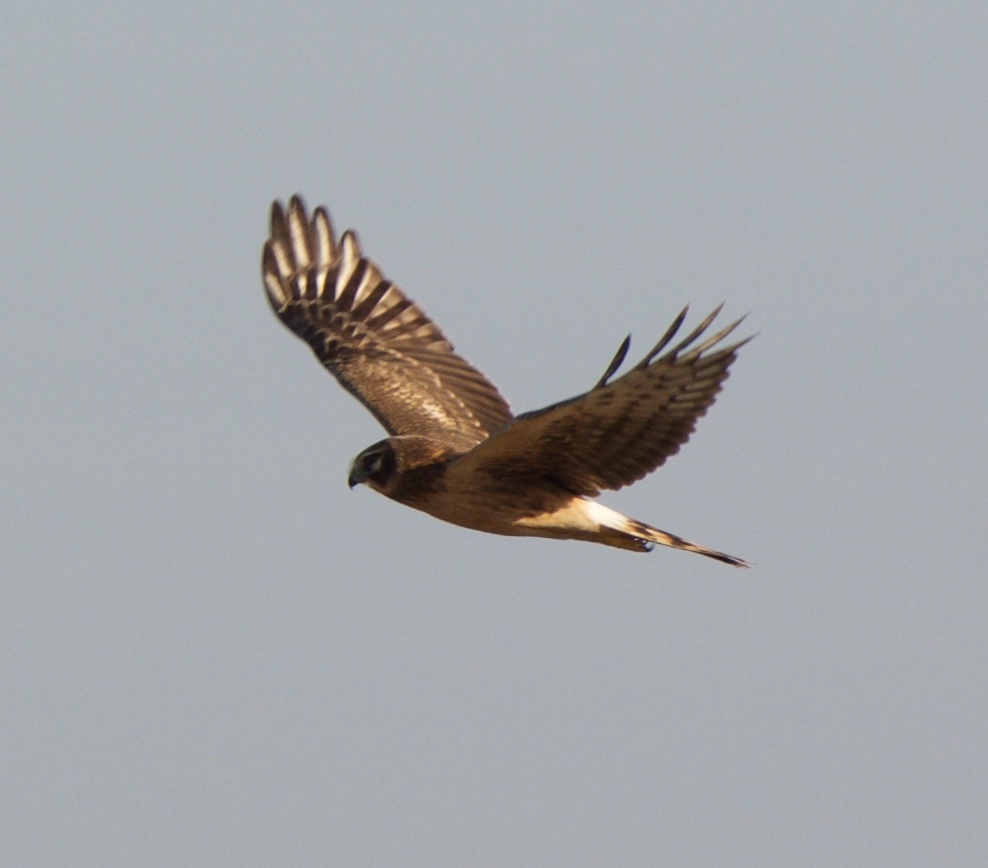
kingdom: Animalia
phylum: Chordata
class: Aves
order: Accipitriformes
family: Accipitridae
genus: Circus
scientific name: Circus cyaneus
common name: Hen harrier
